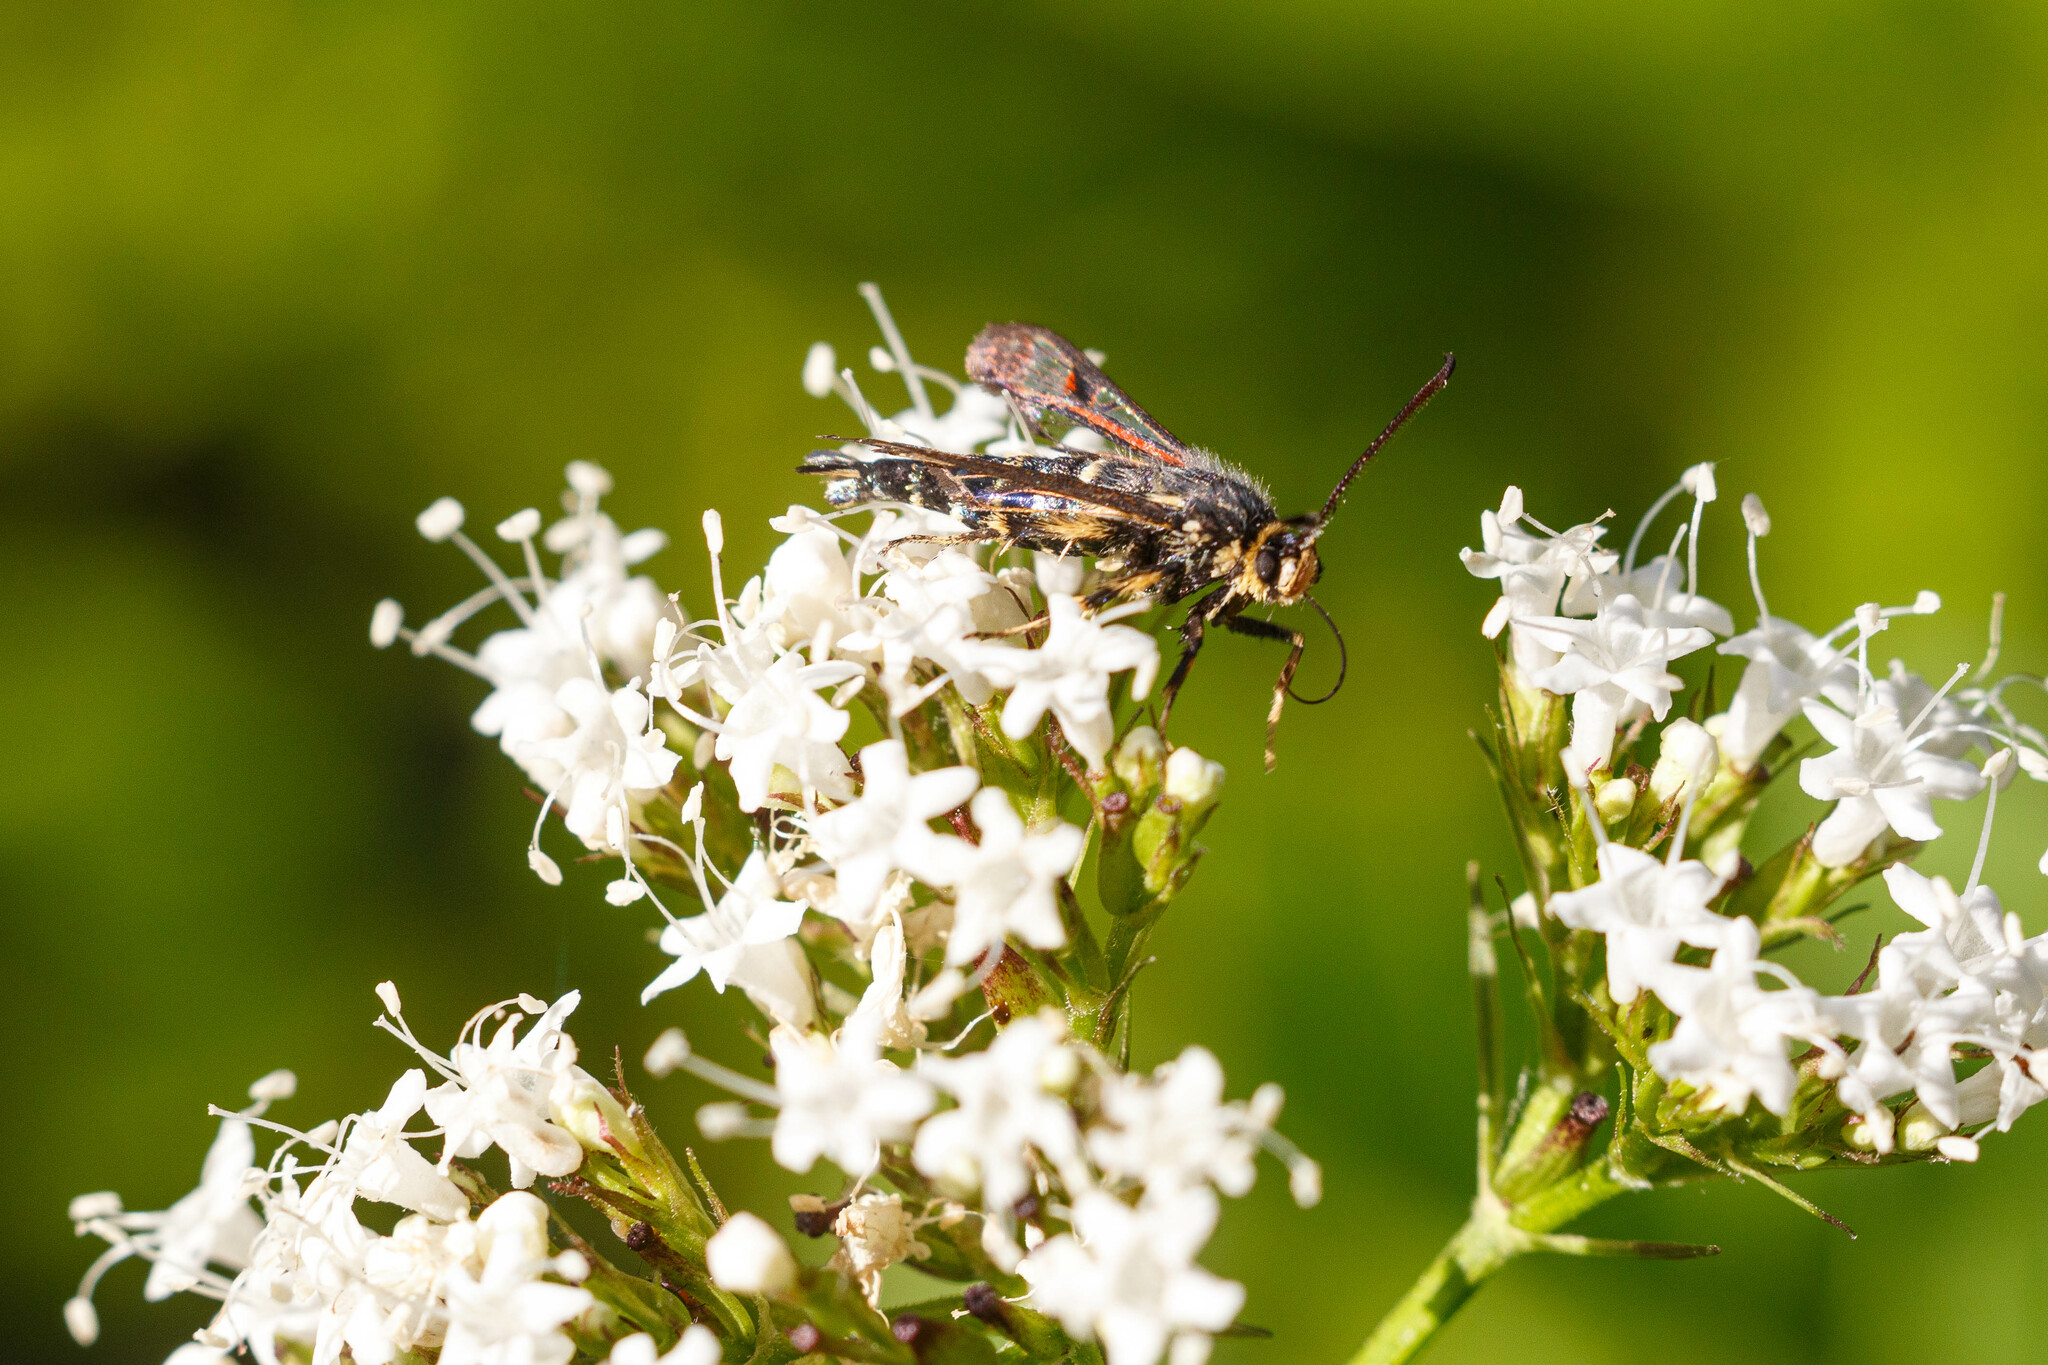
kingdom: Animalia
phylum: Arthropoda
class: Insecta
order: Lepidoptera
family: Sesiidae
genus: Albuna
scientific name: Albuna pyramidalis
